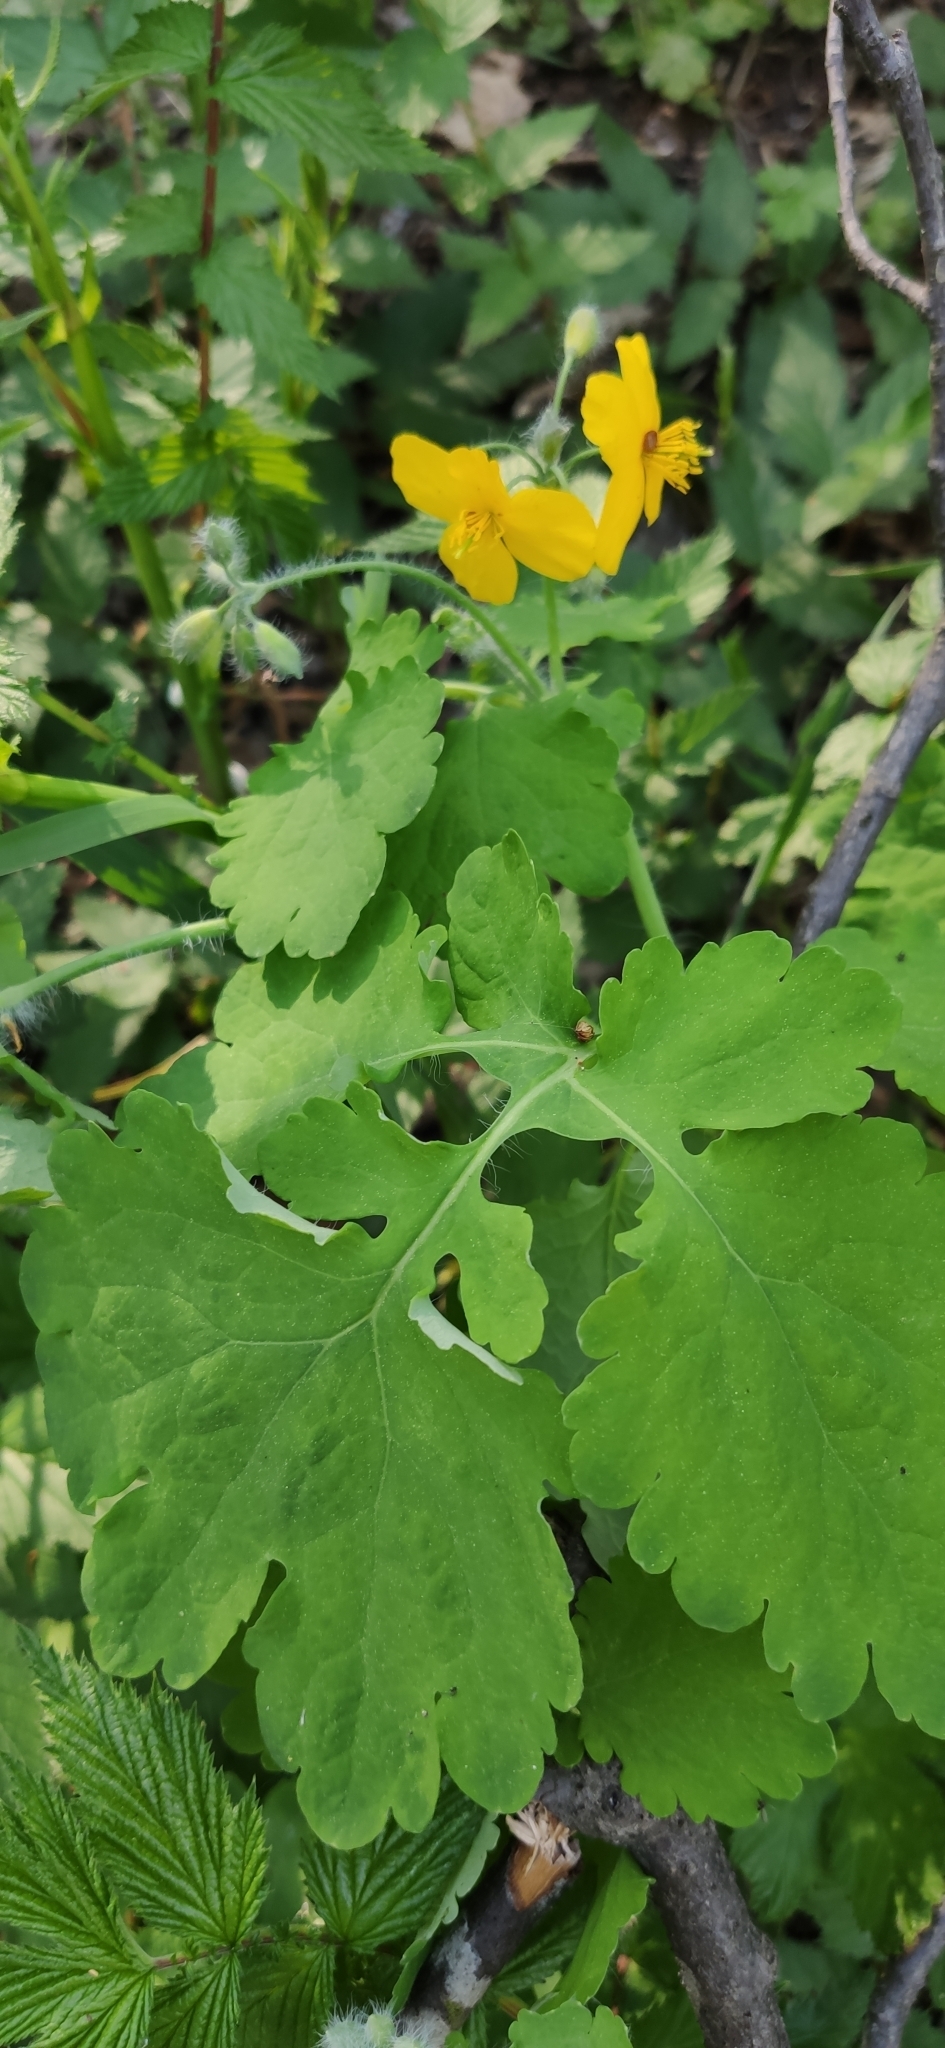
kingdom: Plantae
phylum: Tracheophyta
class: Magnoliopsida
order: Ranunculales
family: Papaveraceae
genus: Chelidonium
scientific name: Chelidonium majus
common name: Greater celandine
